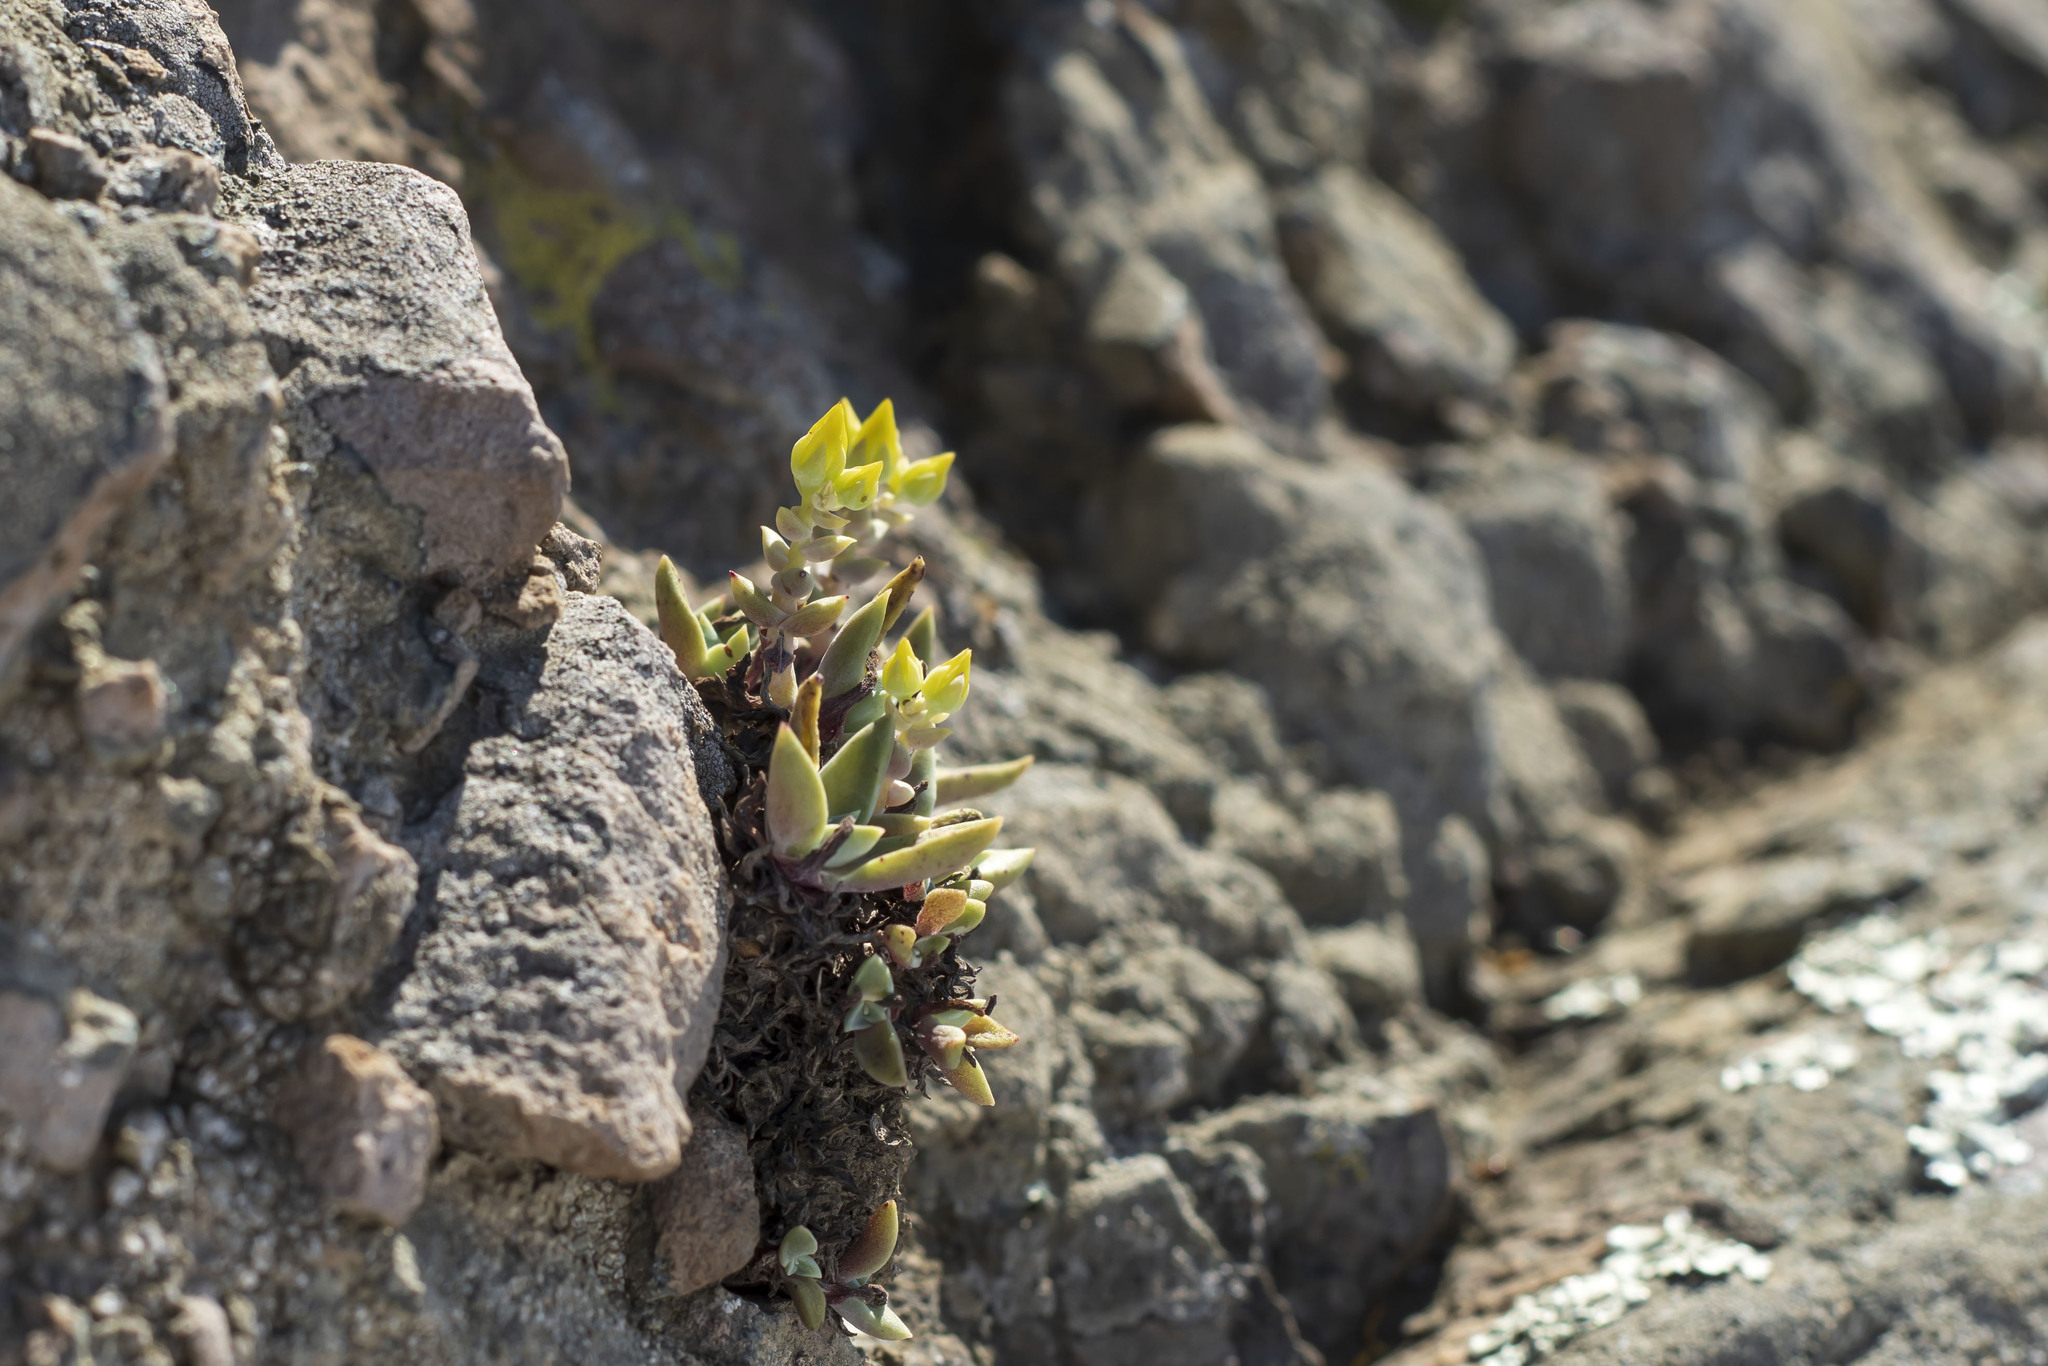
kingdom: Plantae
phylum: Tracheophyta
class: Magnoliopsida
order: Saxifragales
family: Crassulaceae
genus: Dudleya
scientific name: Dudleya verityi
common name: Verity dudleya
